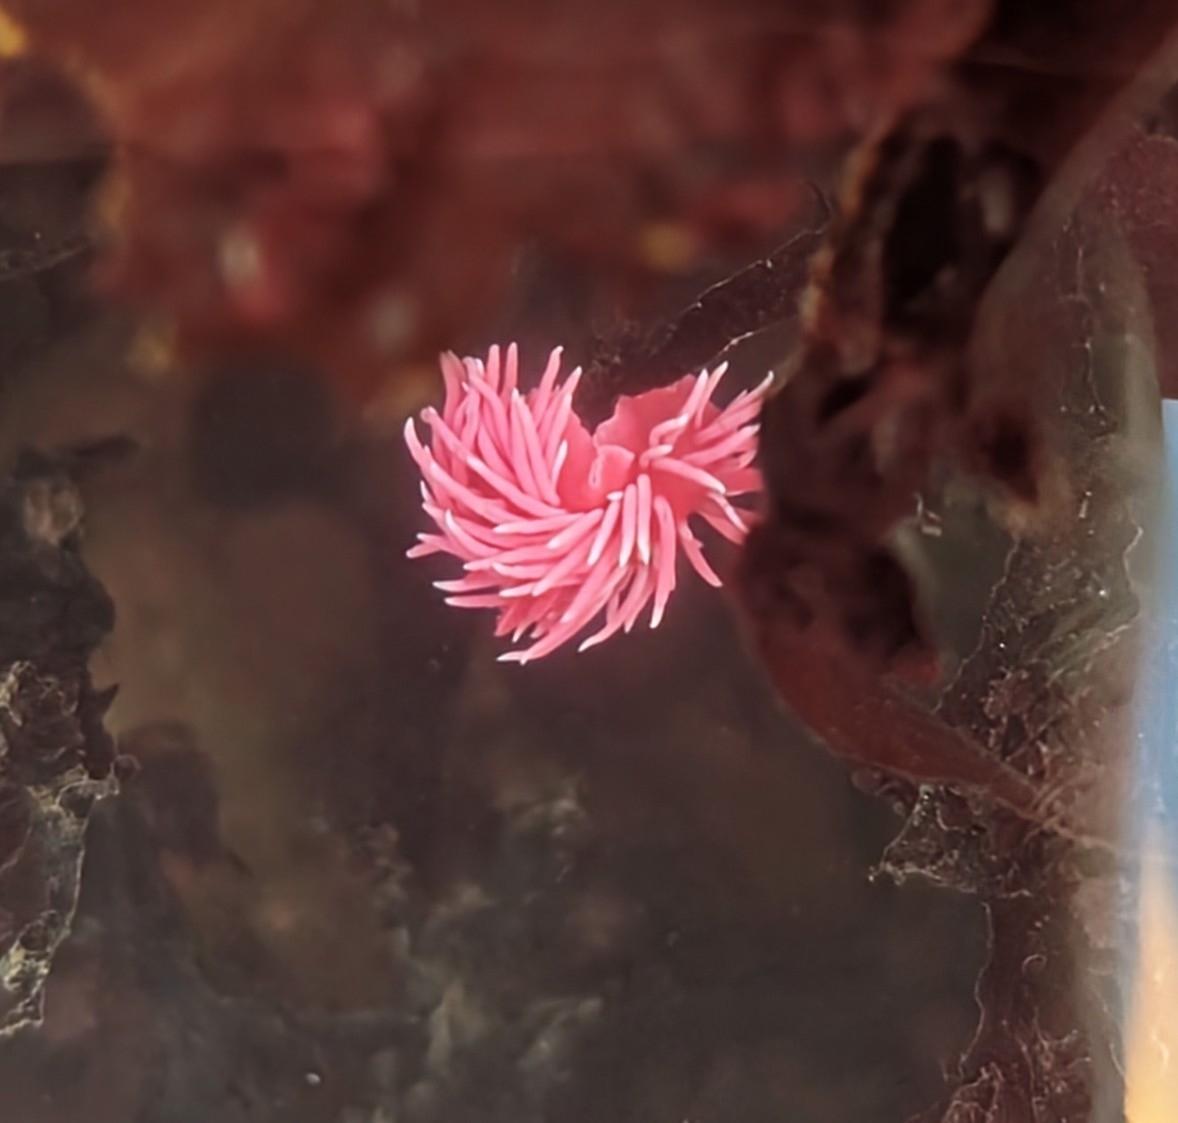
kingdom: Animalia
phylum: Mollusca
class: Gastropoda
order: Nudibranchia
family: Goniodorididae
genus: Okenia
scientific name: Okenia
